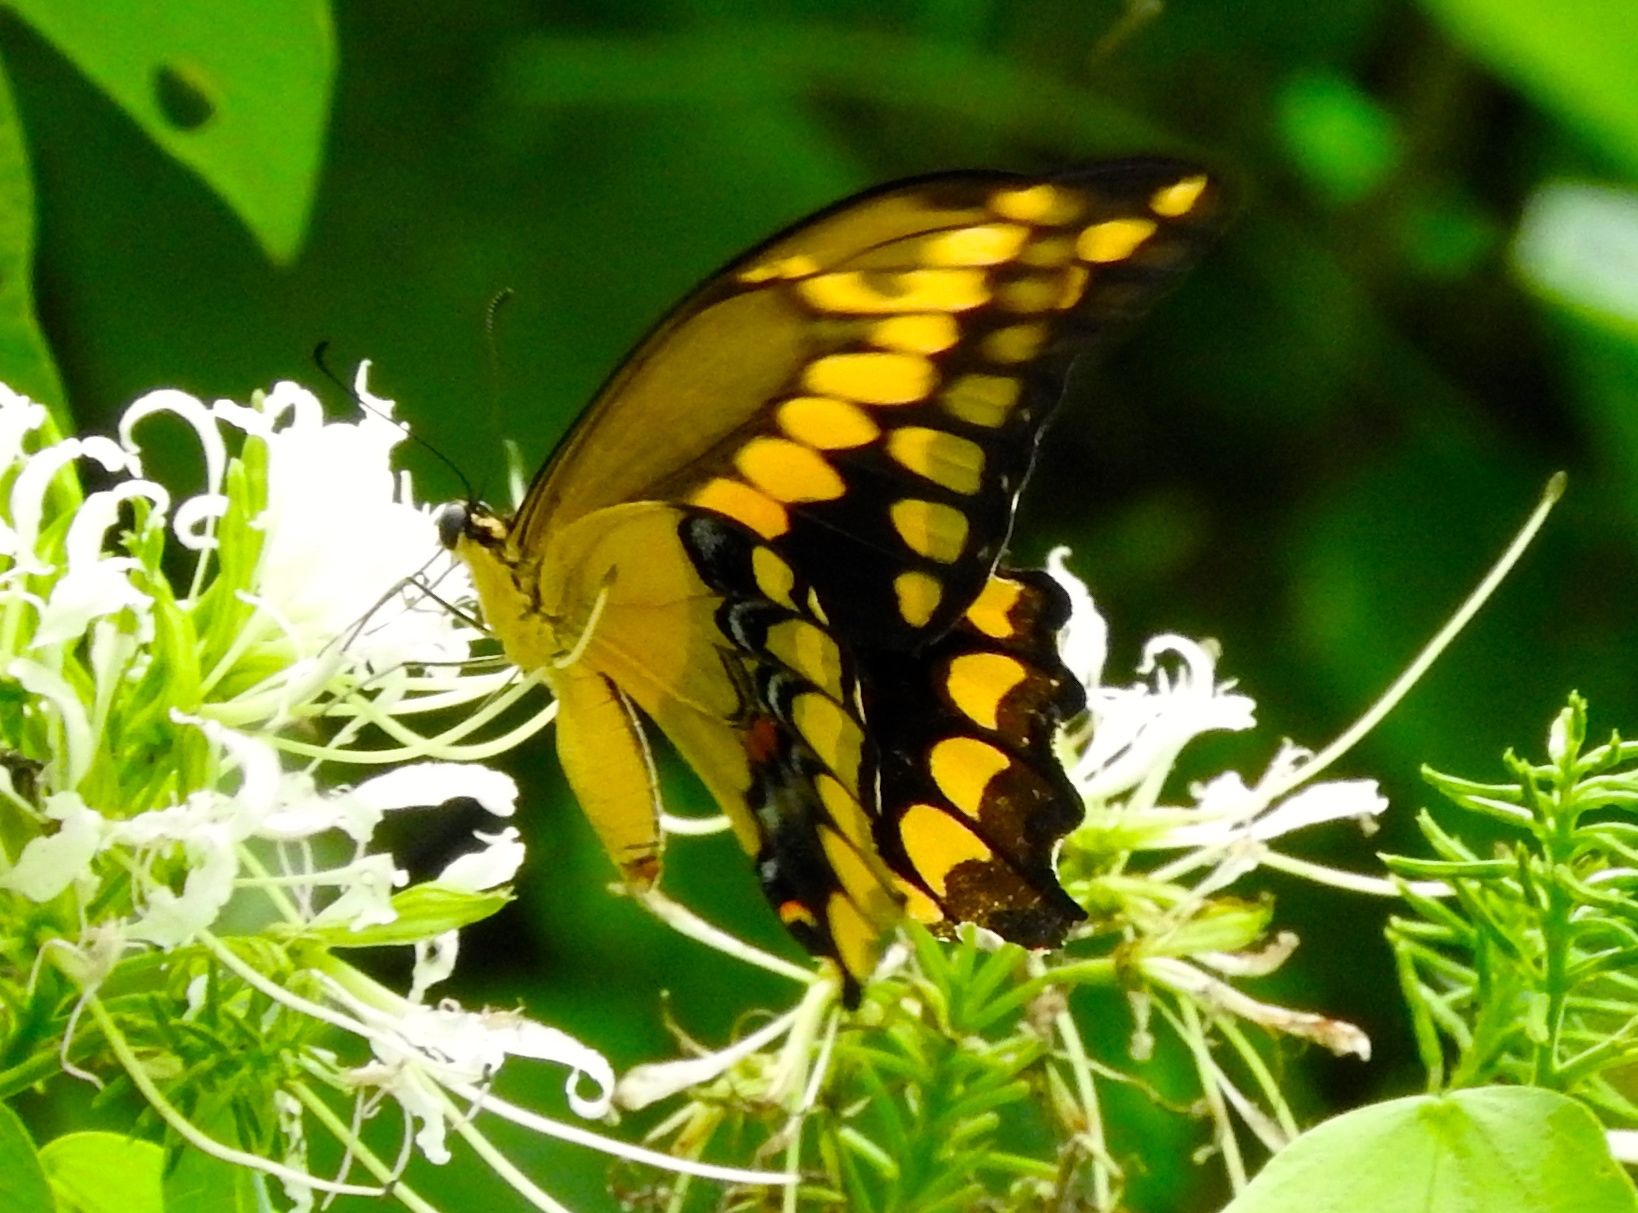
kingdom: Animalia
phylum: Arthropoda
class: Insecta
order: Lepidoptera
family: Papilionidae
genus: Papilio
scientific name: Papilio rumiko
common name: Western giant swallowtail
